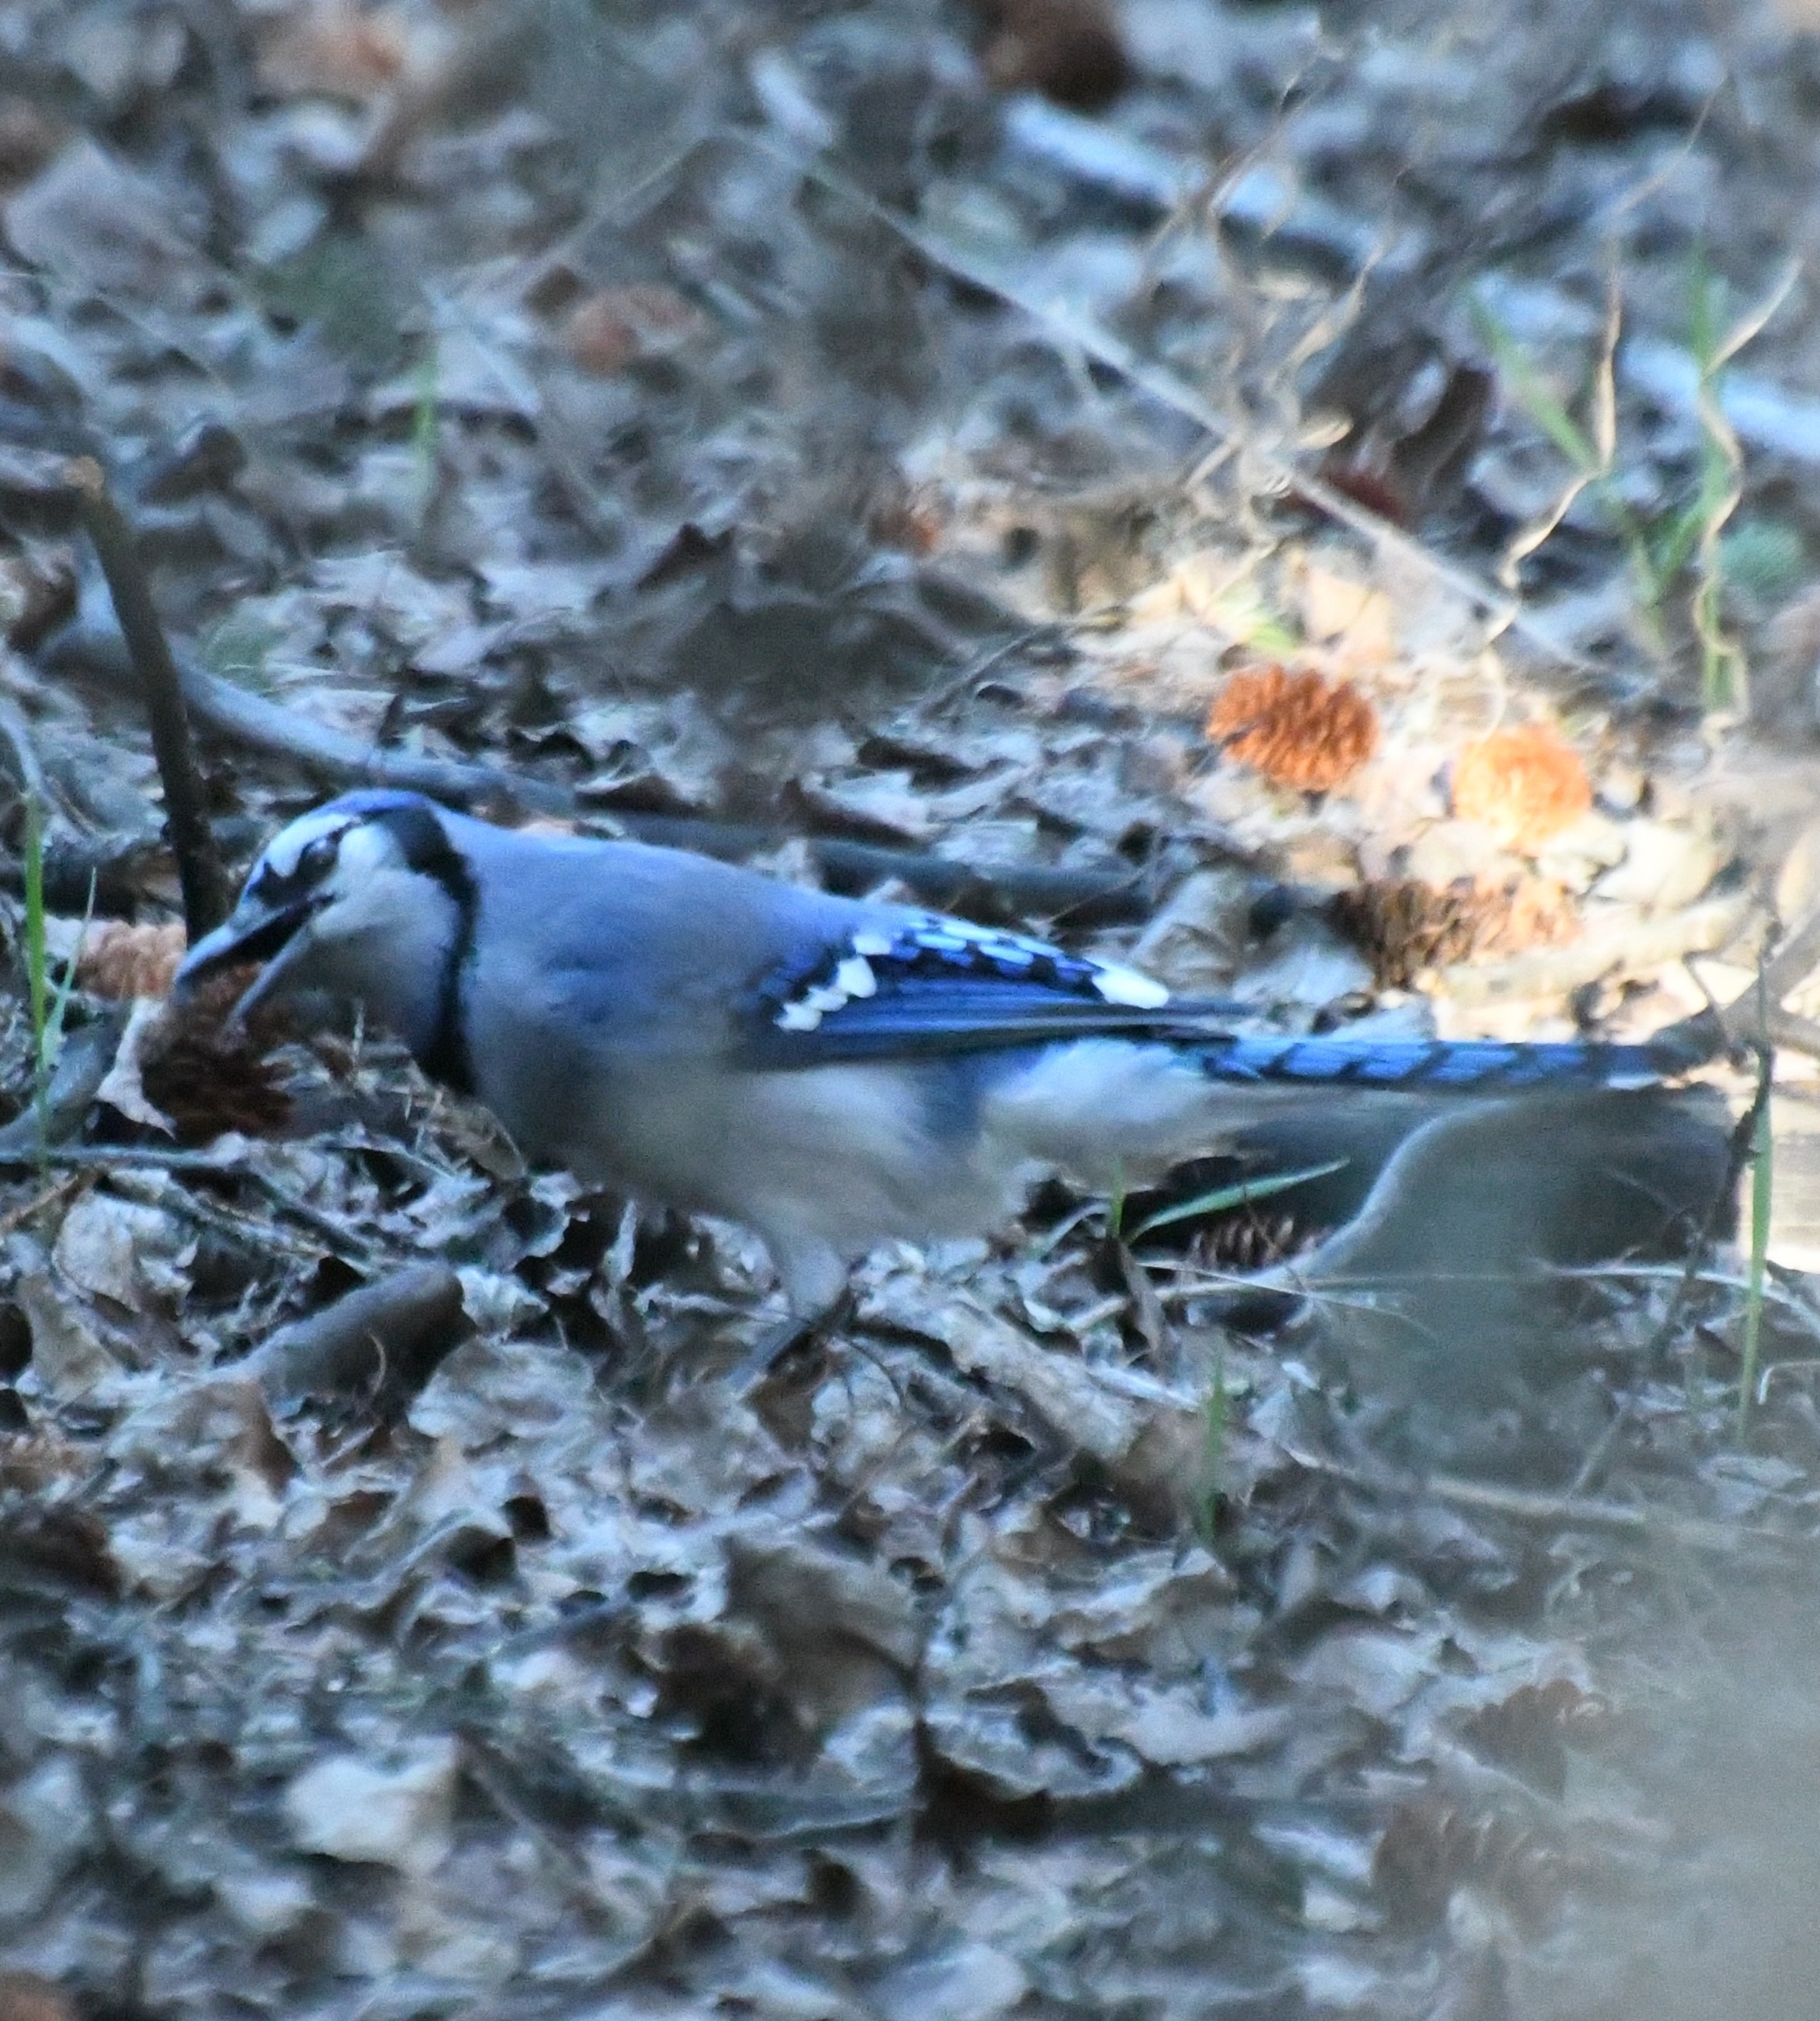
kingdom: Animalia
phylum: Chordata
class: Aves
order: Passeriformes
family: Corvidae
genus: Cyanocitta
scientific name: Cyanocitta cristata
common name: Blue jay
